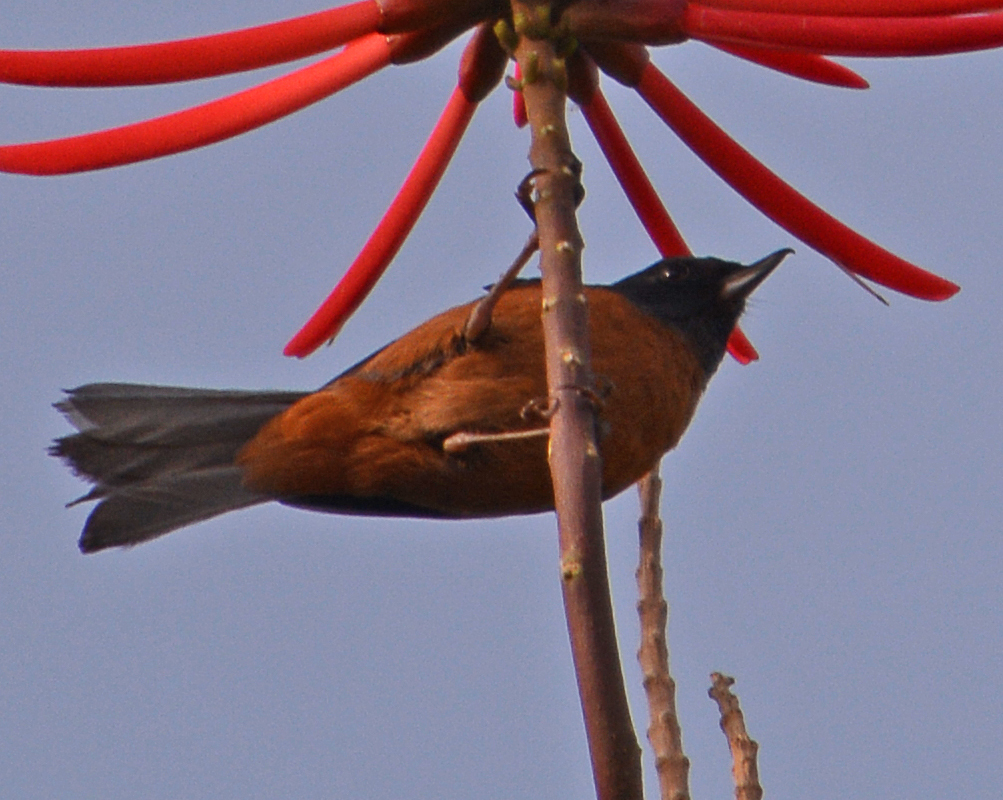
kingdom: Animalia
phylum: Chordata
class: Aves
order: Passeriformes
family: Thraupidae
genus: Diglossa
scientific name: Diglossa baritula
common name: Cinnamon-bellied flowerpiercer
